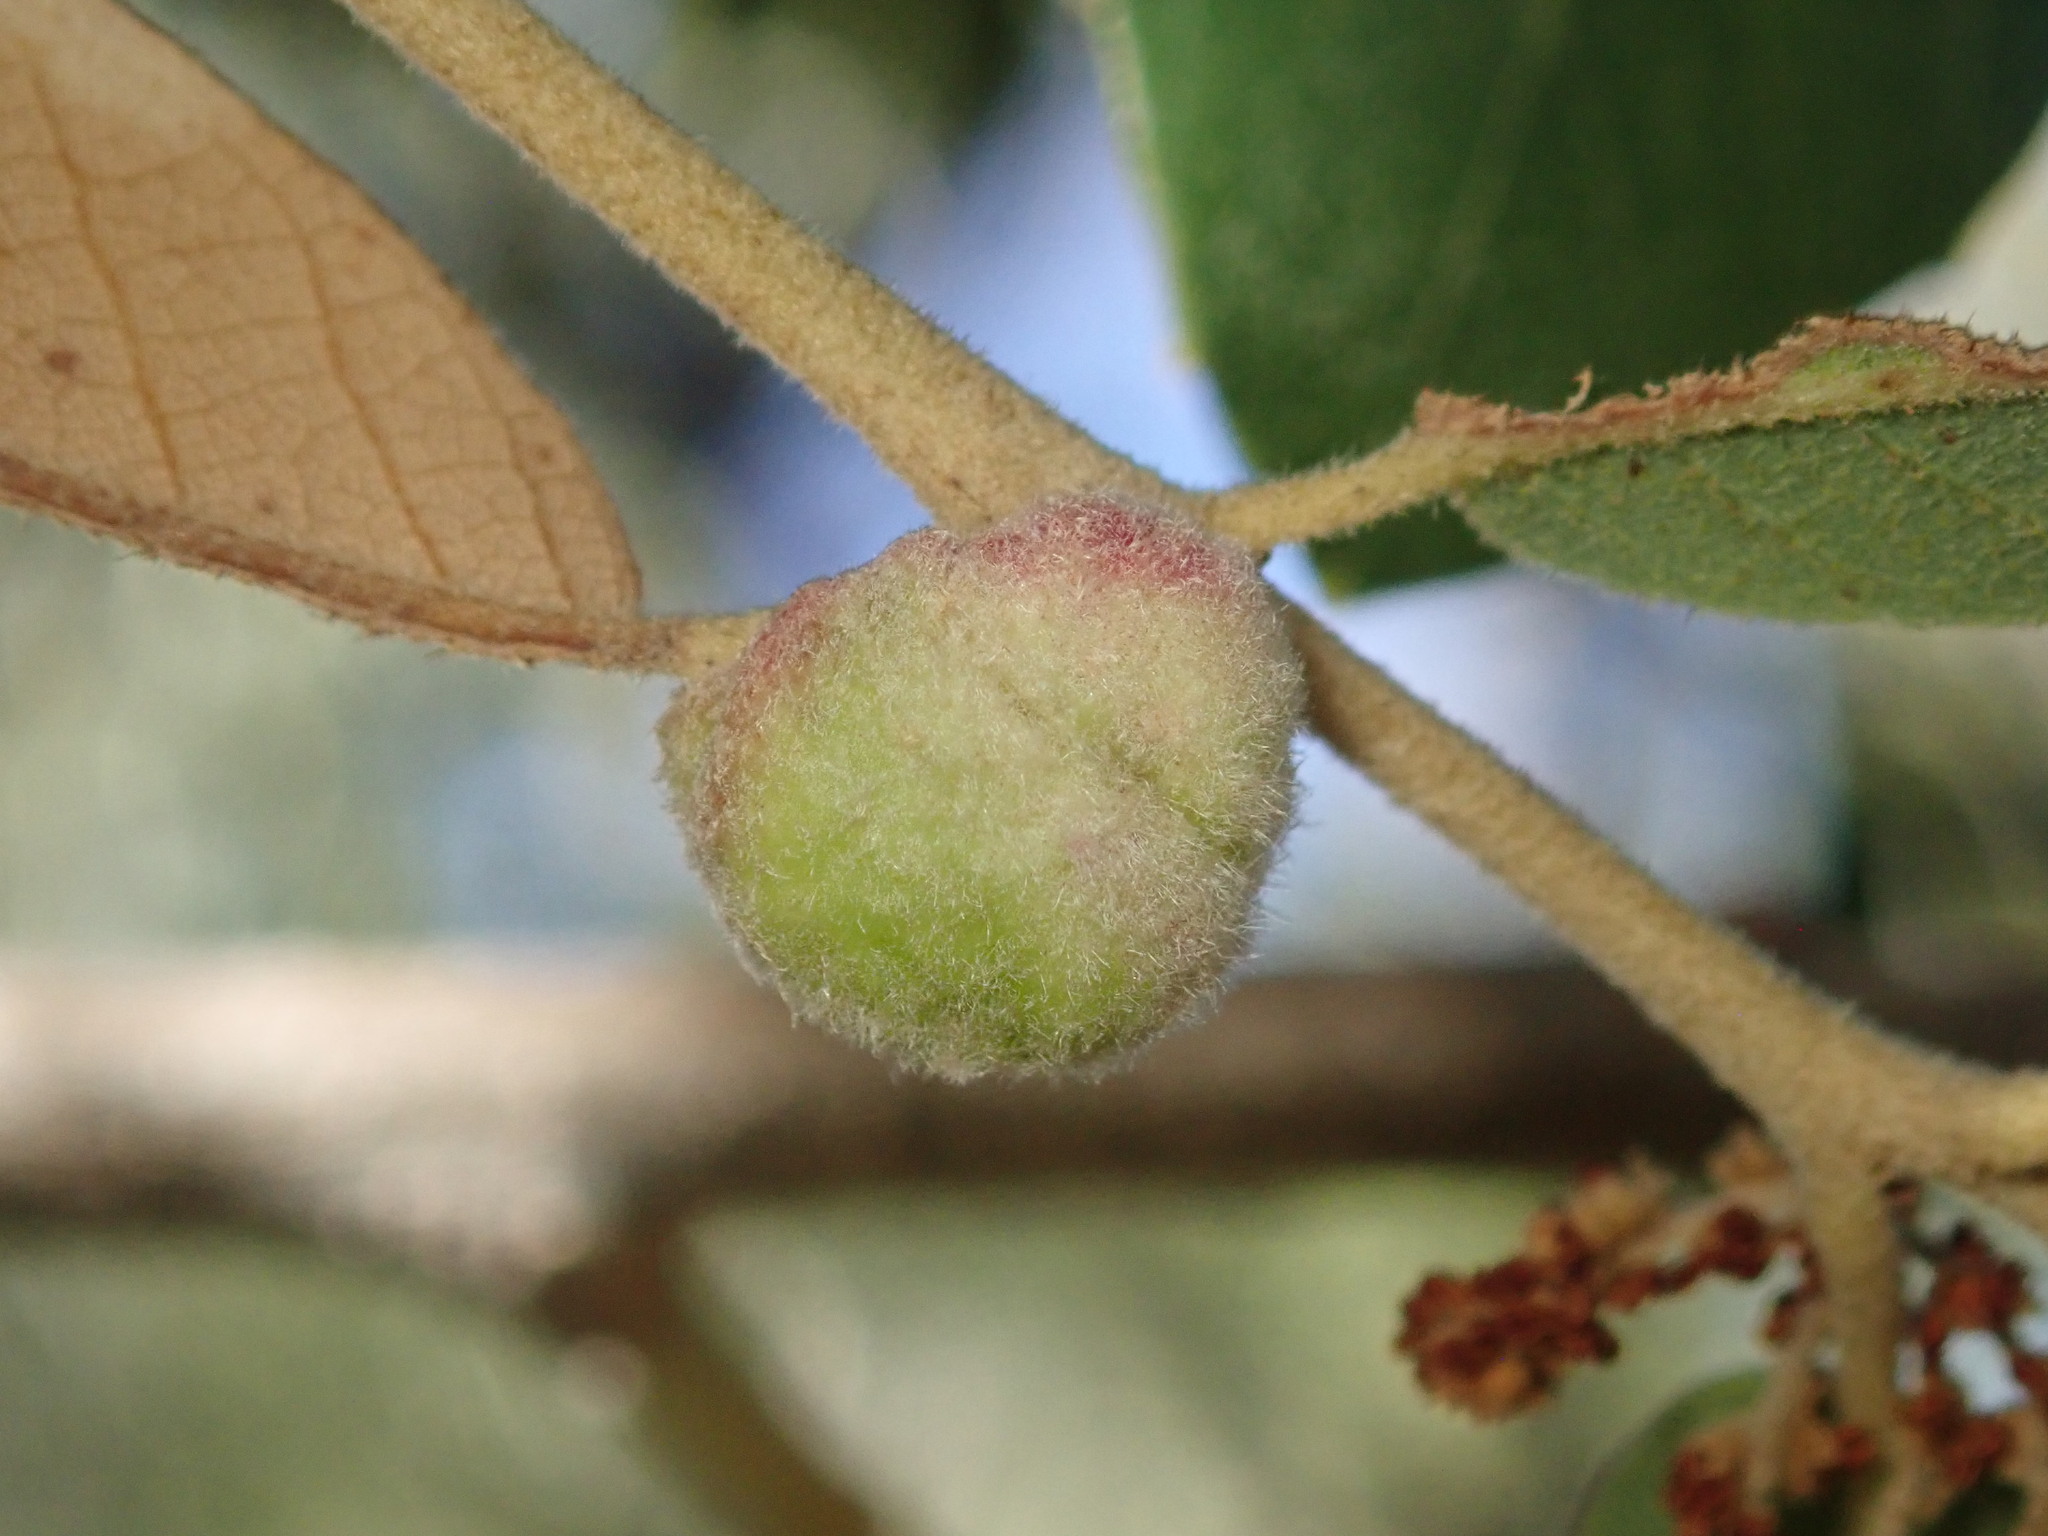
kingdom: Animalia
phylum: Arthropoda
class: Insecta
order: Hymenoptera
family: Cynipidae
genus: Nichollsiella
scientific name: Nichollsiella
